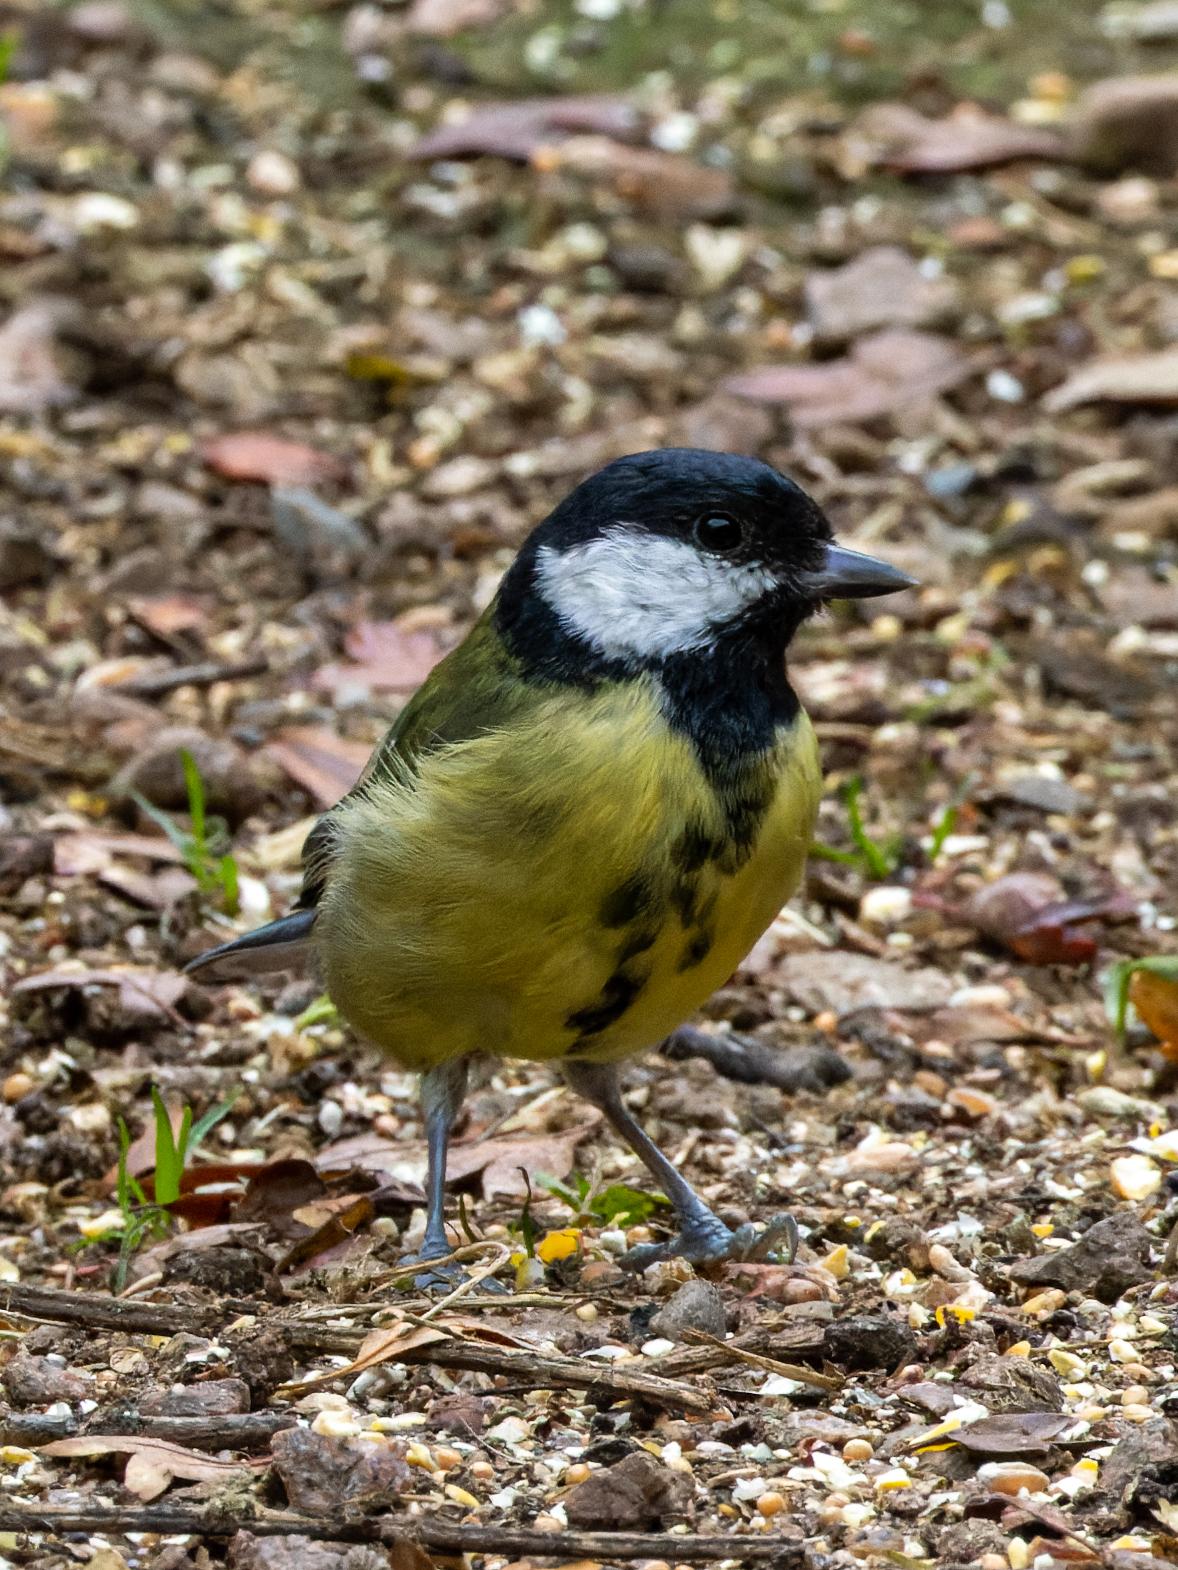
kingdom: Animalia
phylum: Chordata
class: Aves
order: Passeriformes
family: Paridae
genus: Parus
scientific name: Parus major
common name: Great tit
